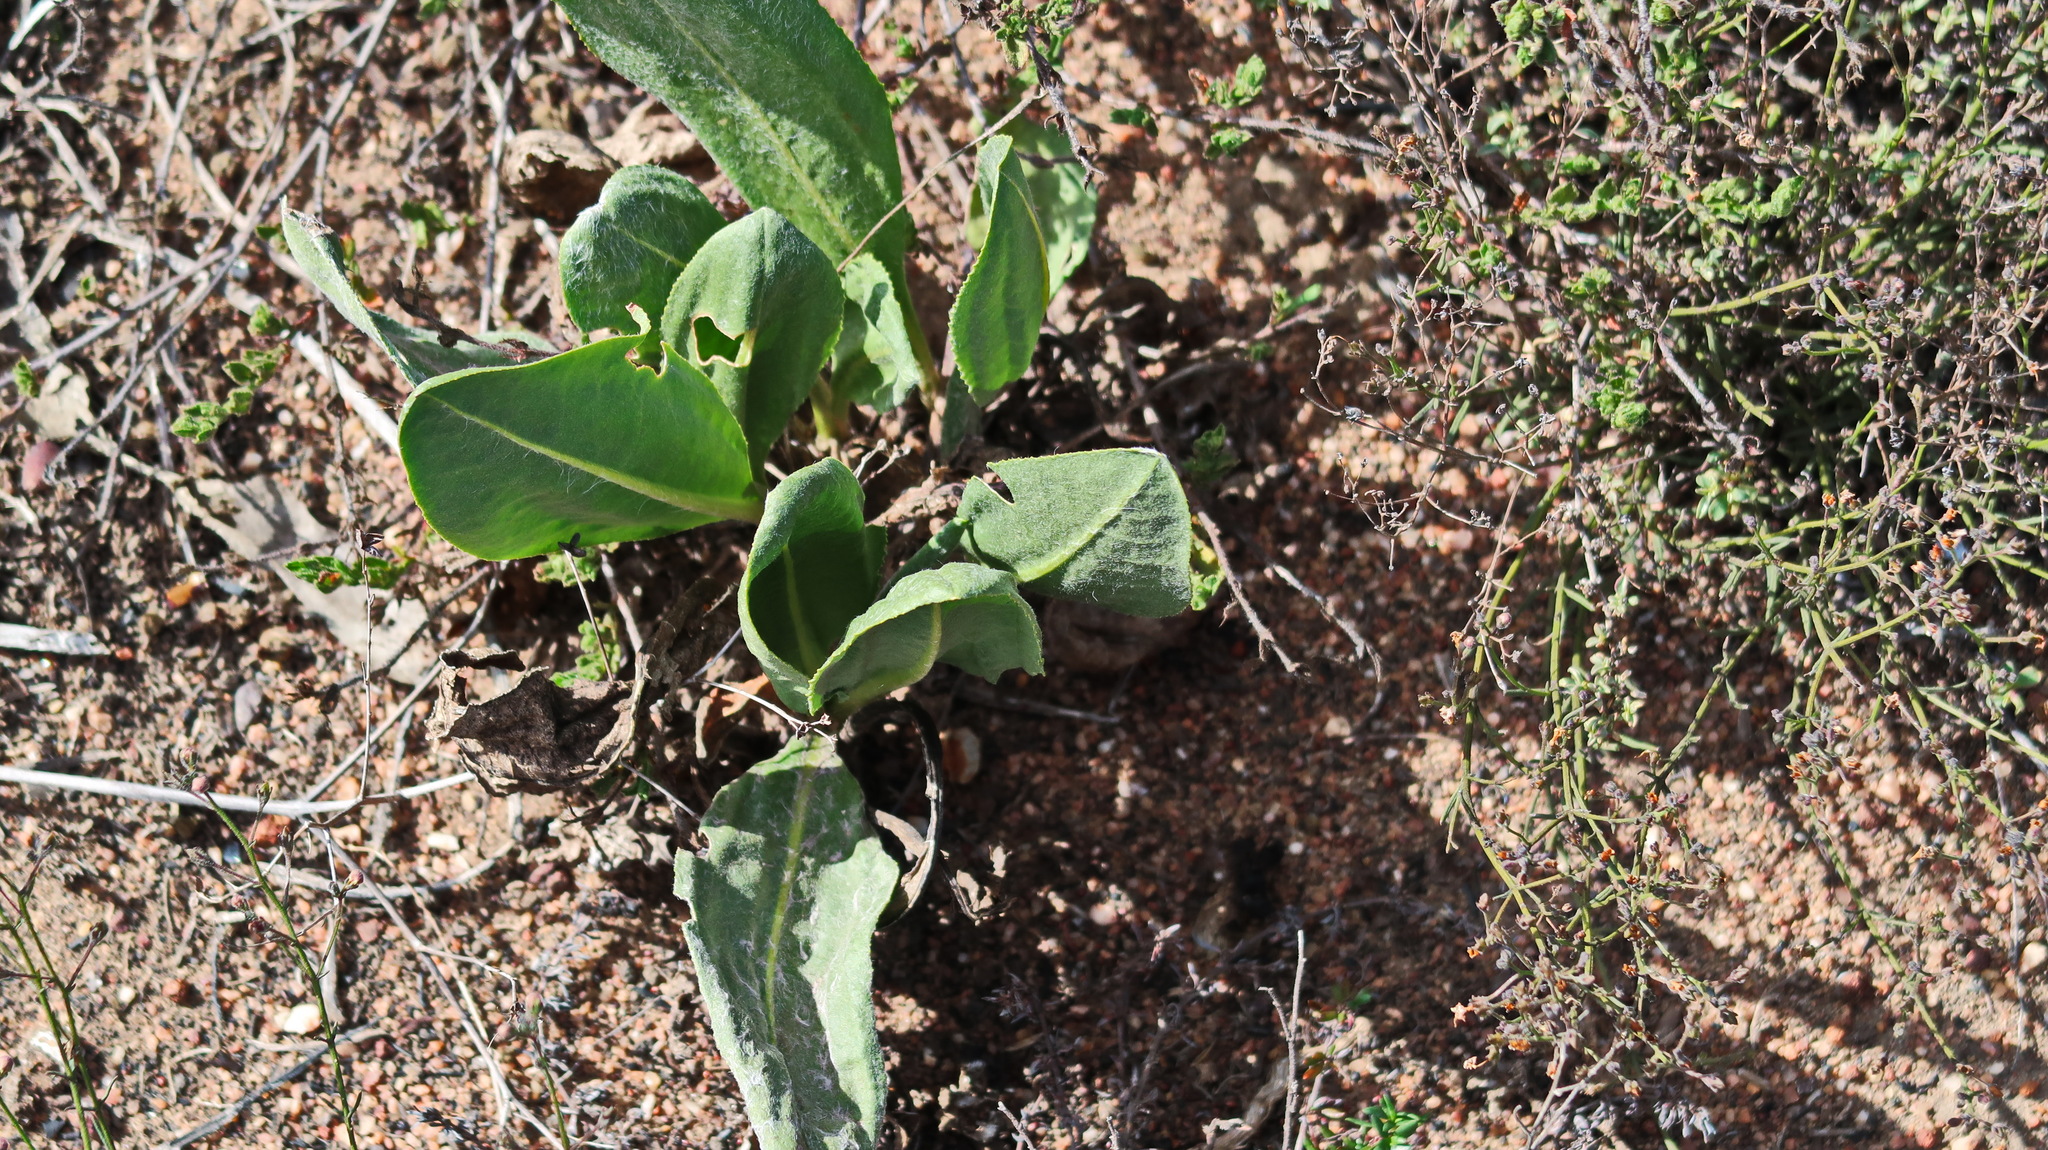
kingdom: Plantae
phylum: Tracheophyta
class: Magnoliopsida
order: Asterales
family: Asteraceae
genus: Helichrysum
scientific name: Helichrysum nudifolium
